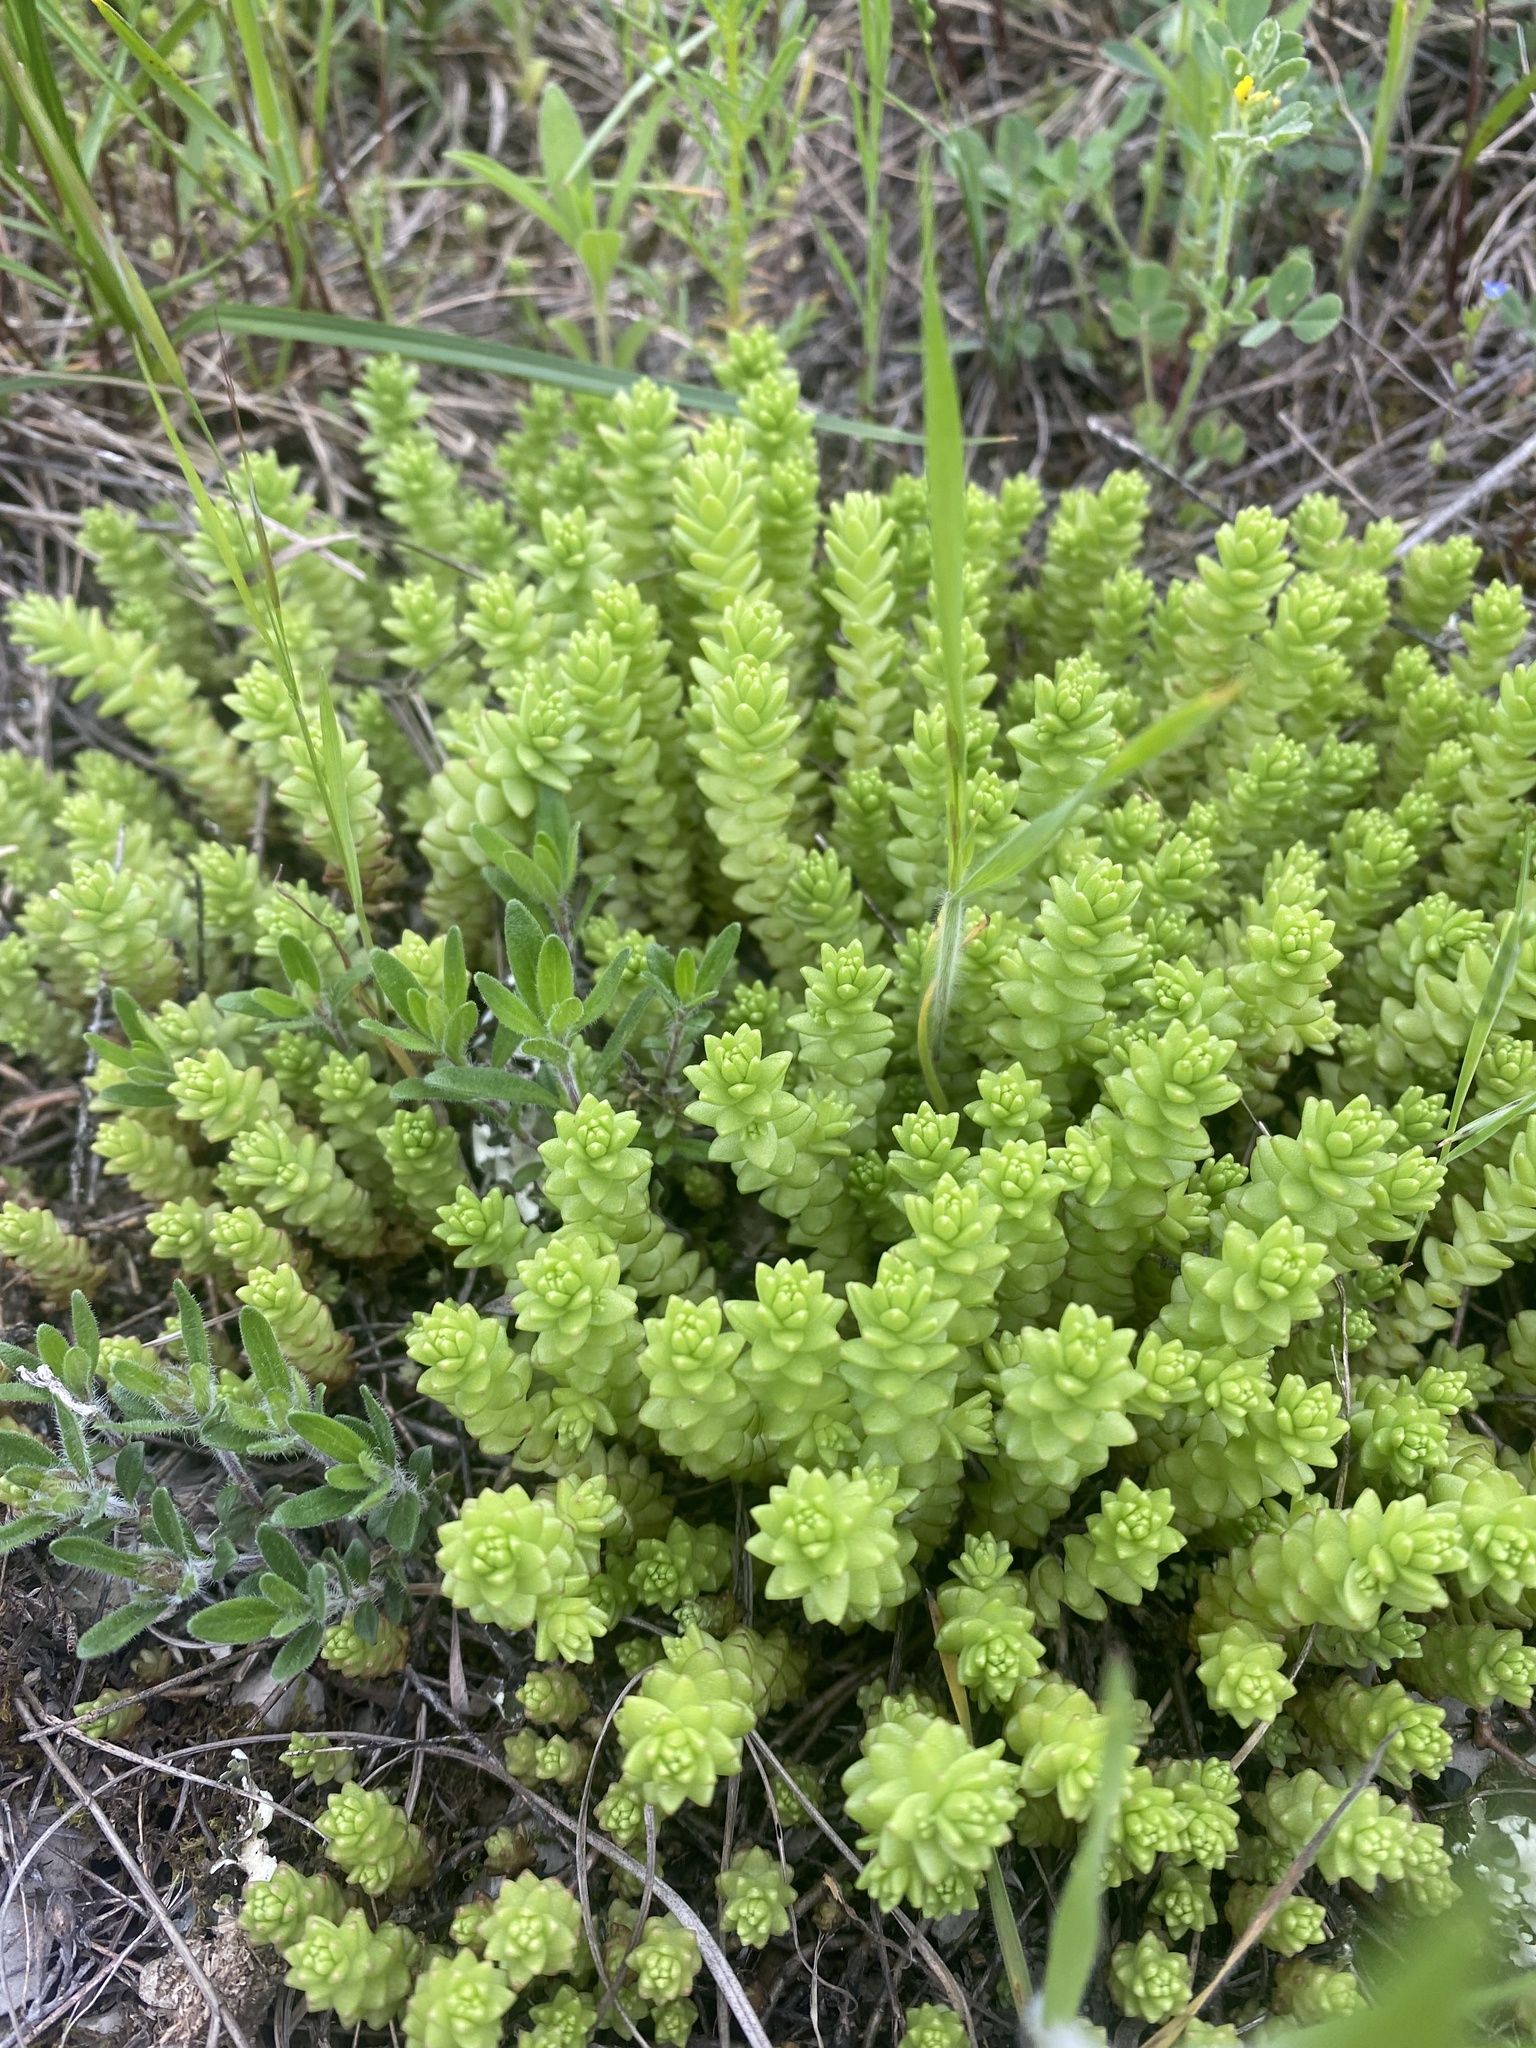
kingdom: Plantae
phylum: Tracheophyta
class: Magnoliopsida
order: Saxifragales
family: Crassulaceae
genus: Sedum
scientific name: Sedum acre
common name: Biting stonecrop
